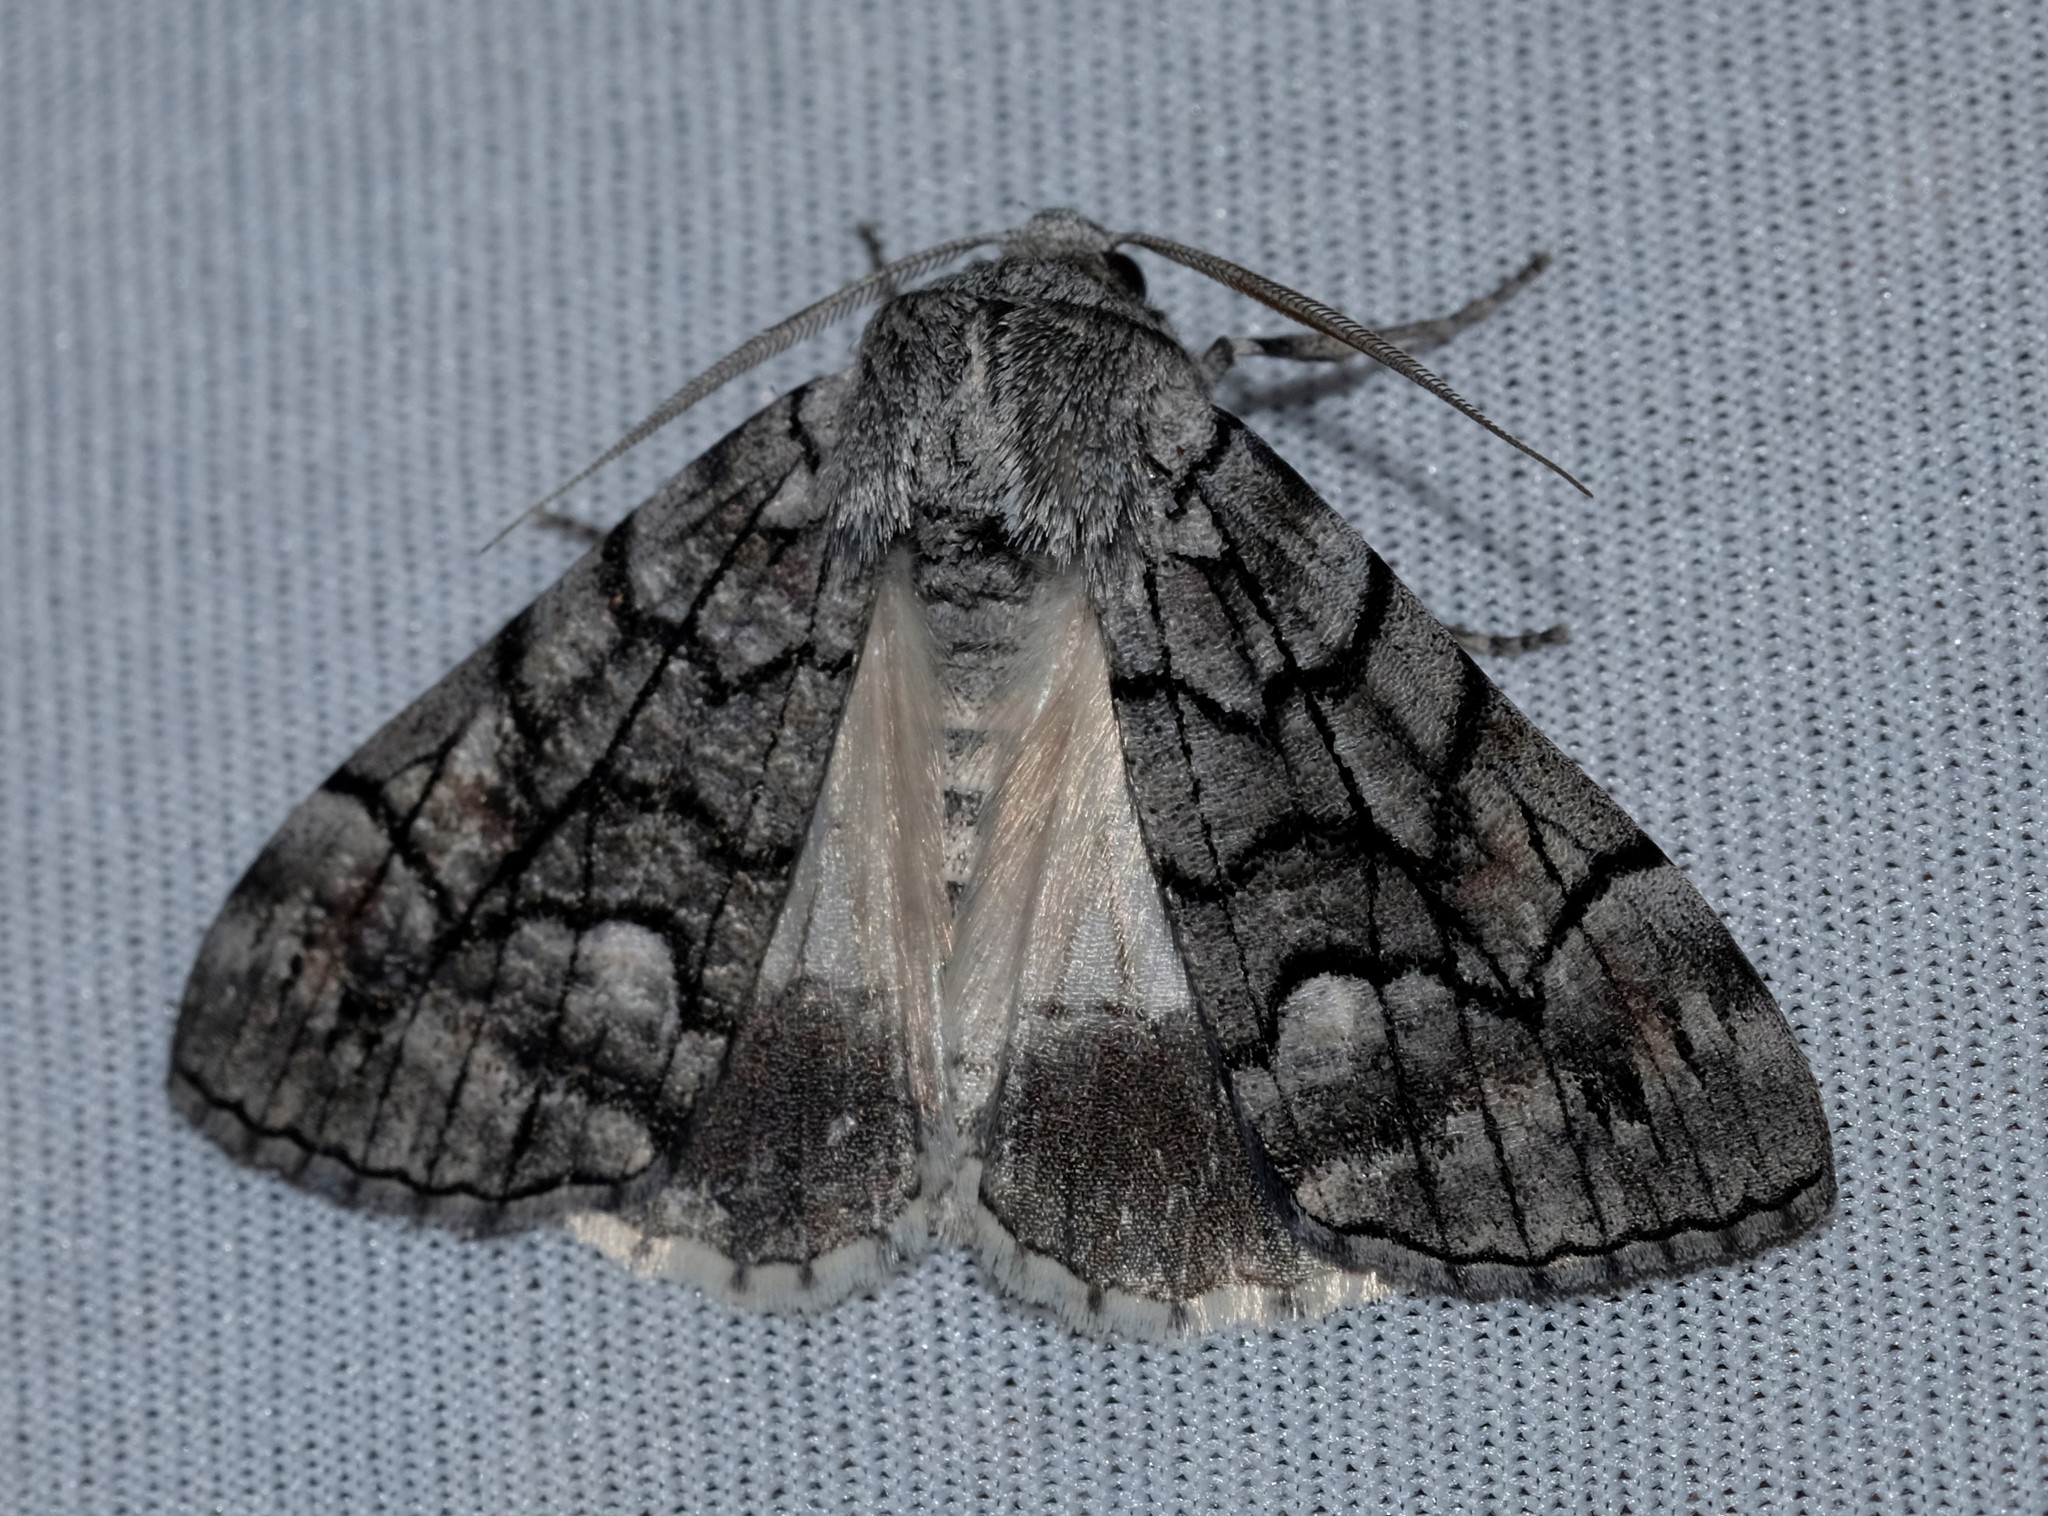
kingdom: Animalia
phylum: Arthropoda
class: Insecta
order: Lepidoptera
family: Geometridae
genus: Stibaroma
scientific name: Stibaroma
